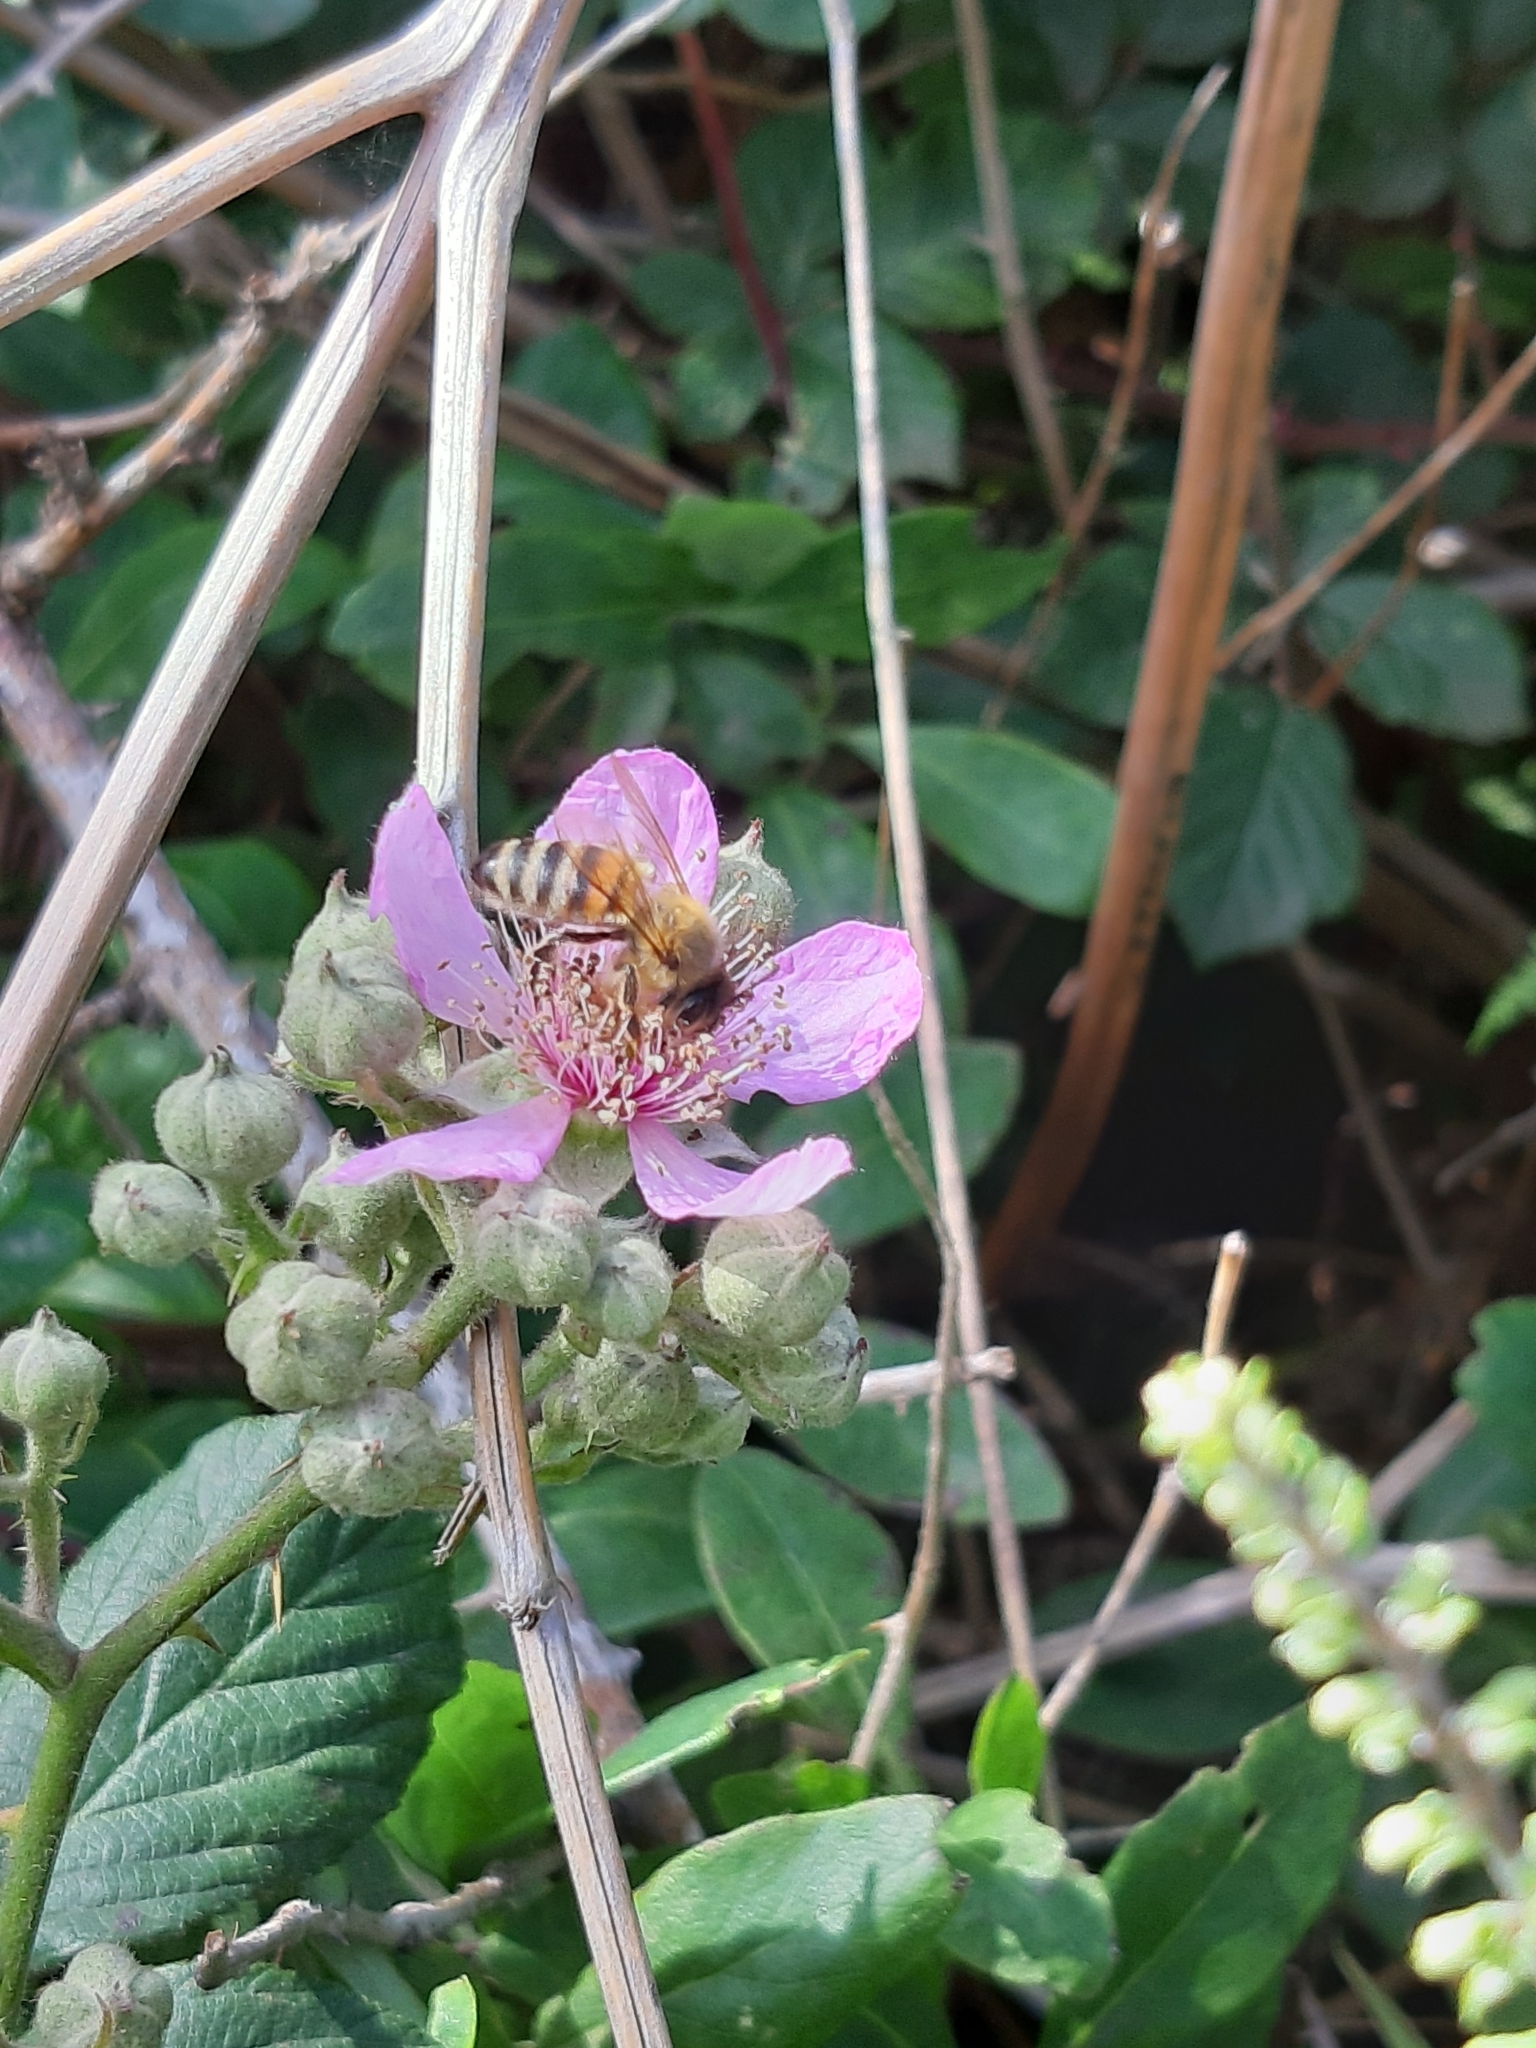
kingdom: Animalia
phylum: Arthropoda
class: Insecta
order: Hymenoptera
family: Apidae
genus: Apis
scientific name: Apis mellifera
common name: Honey bee
